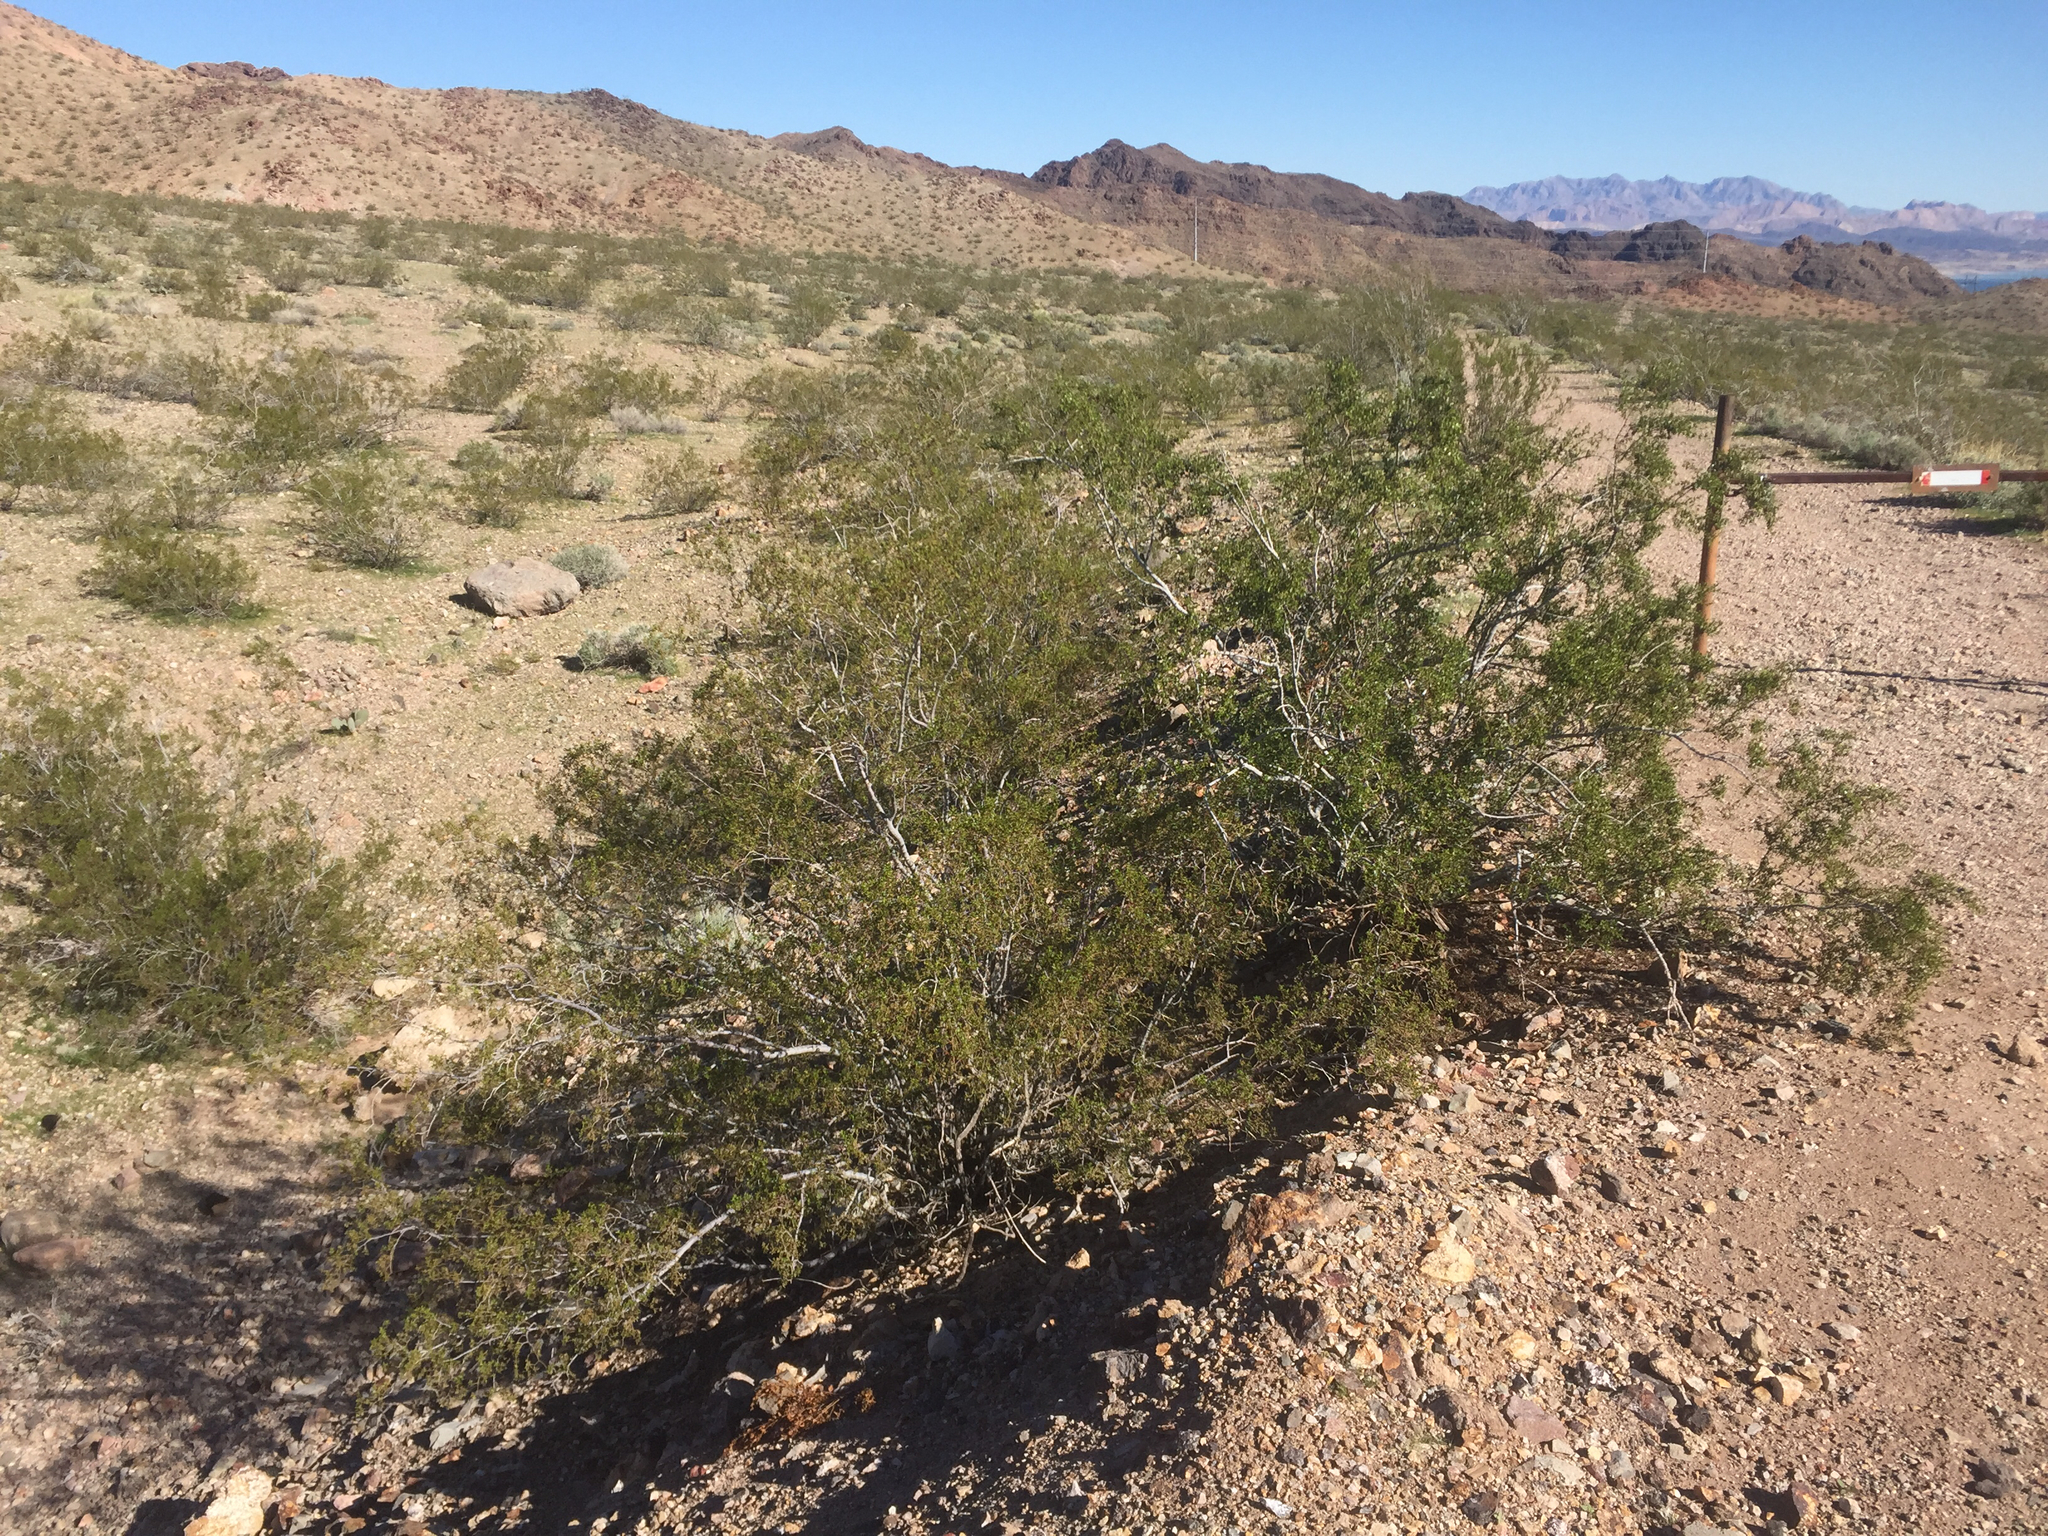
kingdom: Plantae
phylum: Tracheophyta
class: Magnoliopsida
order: Zygophyllales
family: Zygophyllaceae
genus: Larrea
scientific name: Larrea tridentata
